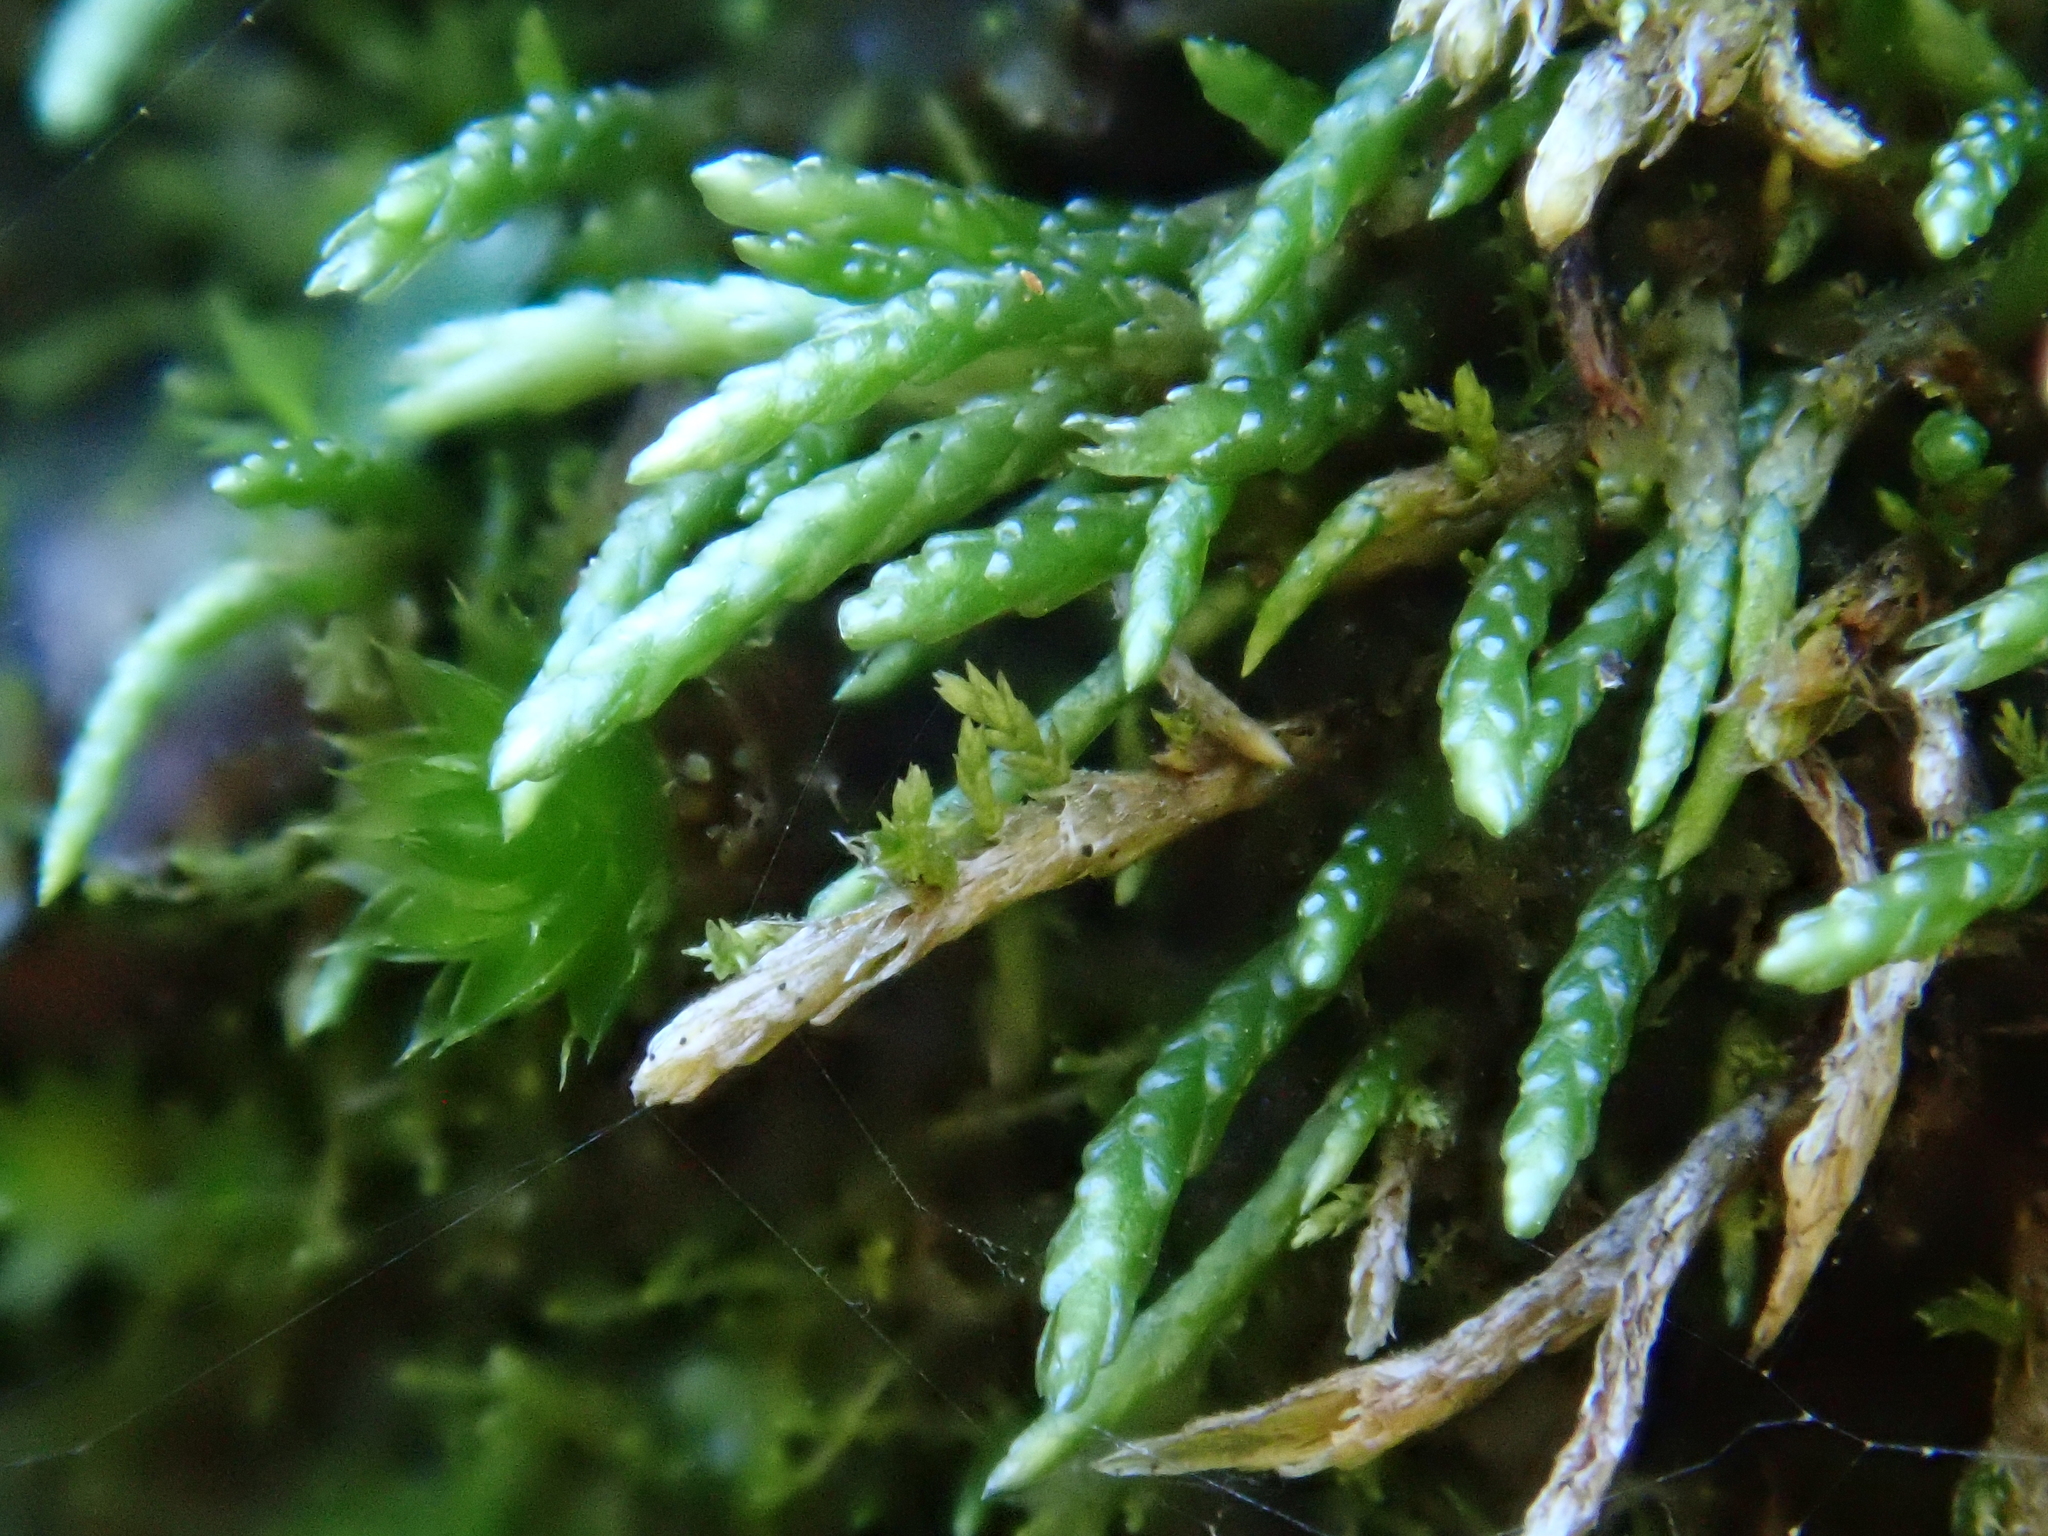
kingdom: Plantae
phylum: Bryophyta
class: Bryopsida
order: Bryales
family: Bryaceae
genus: Anomobryum
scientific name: Anomobryum julaceum
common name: Slender silver moss
